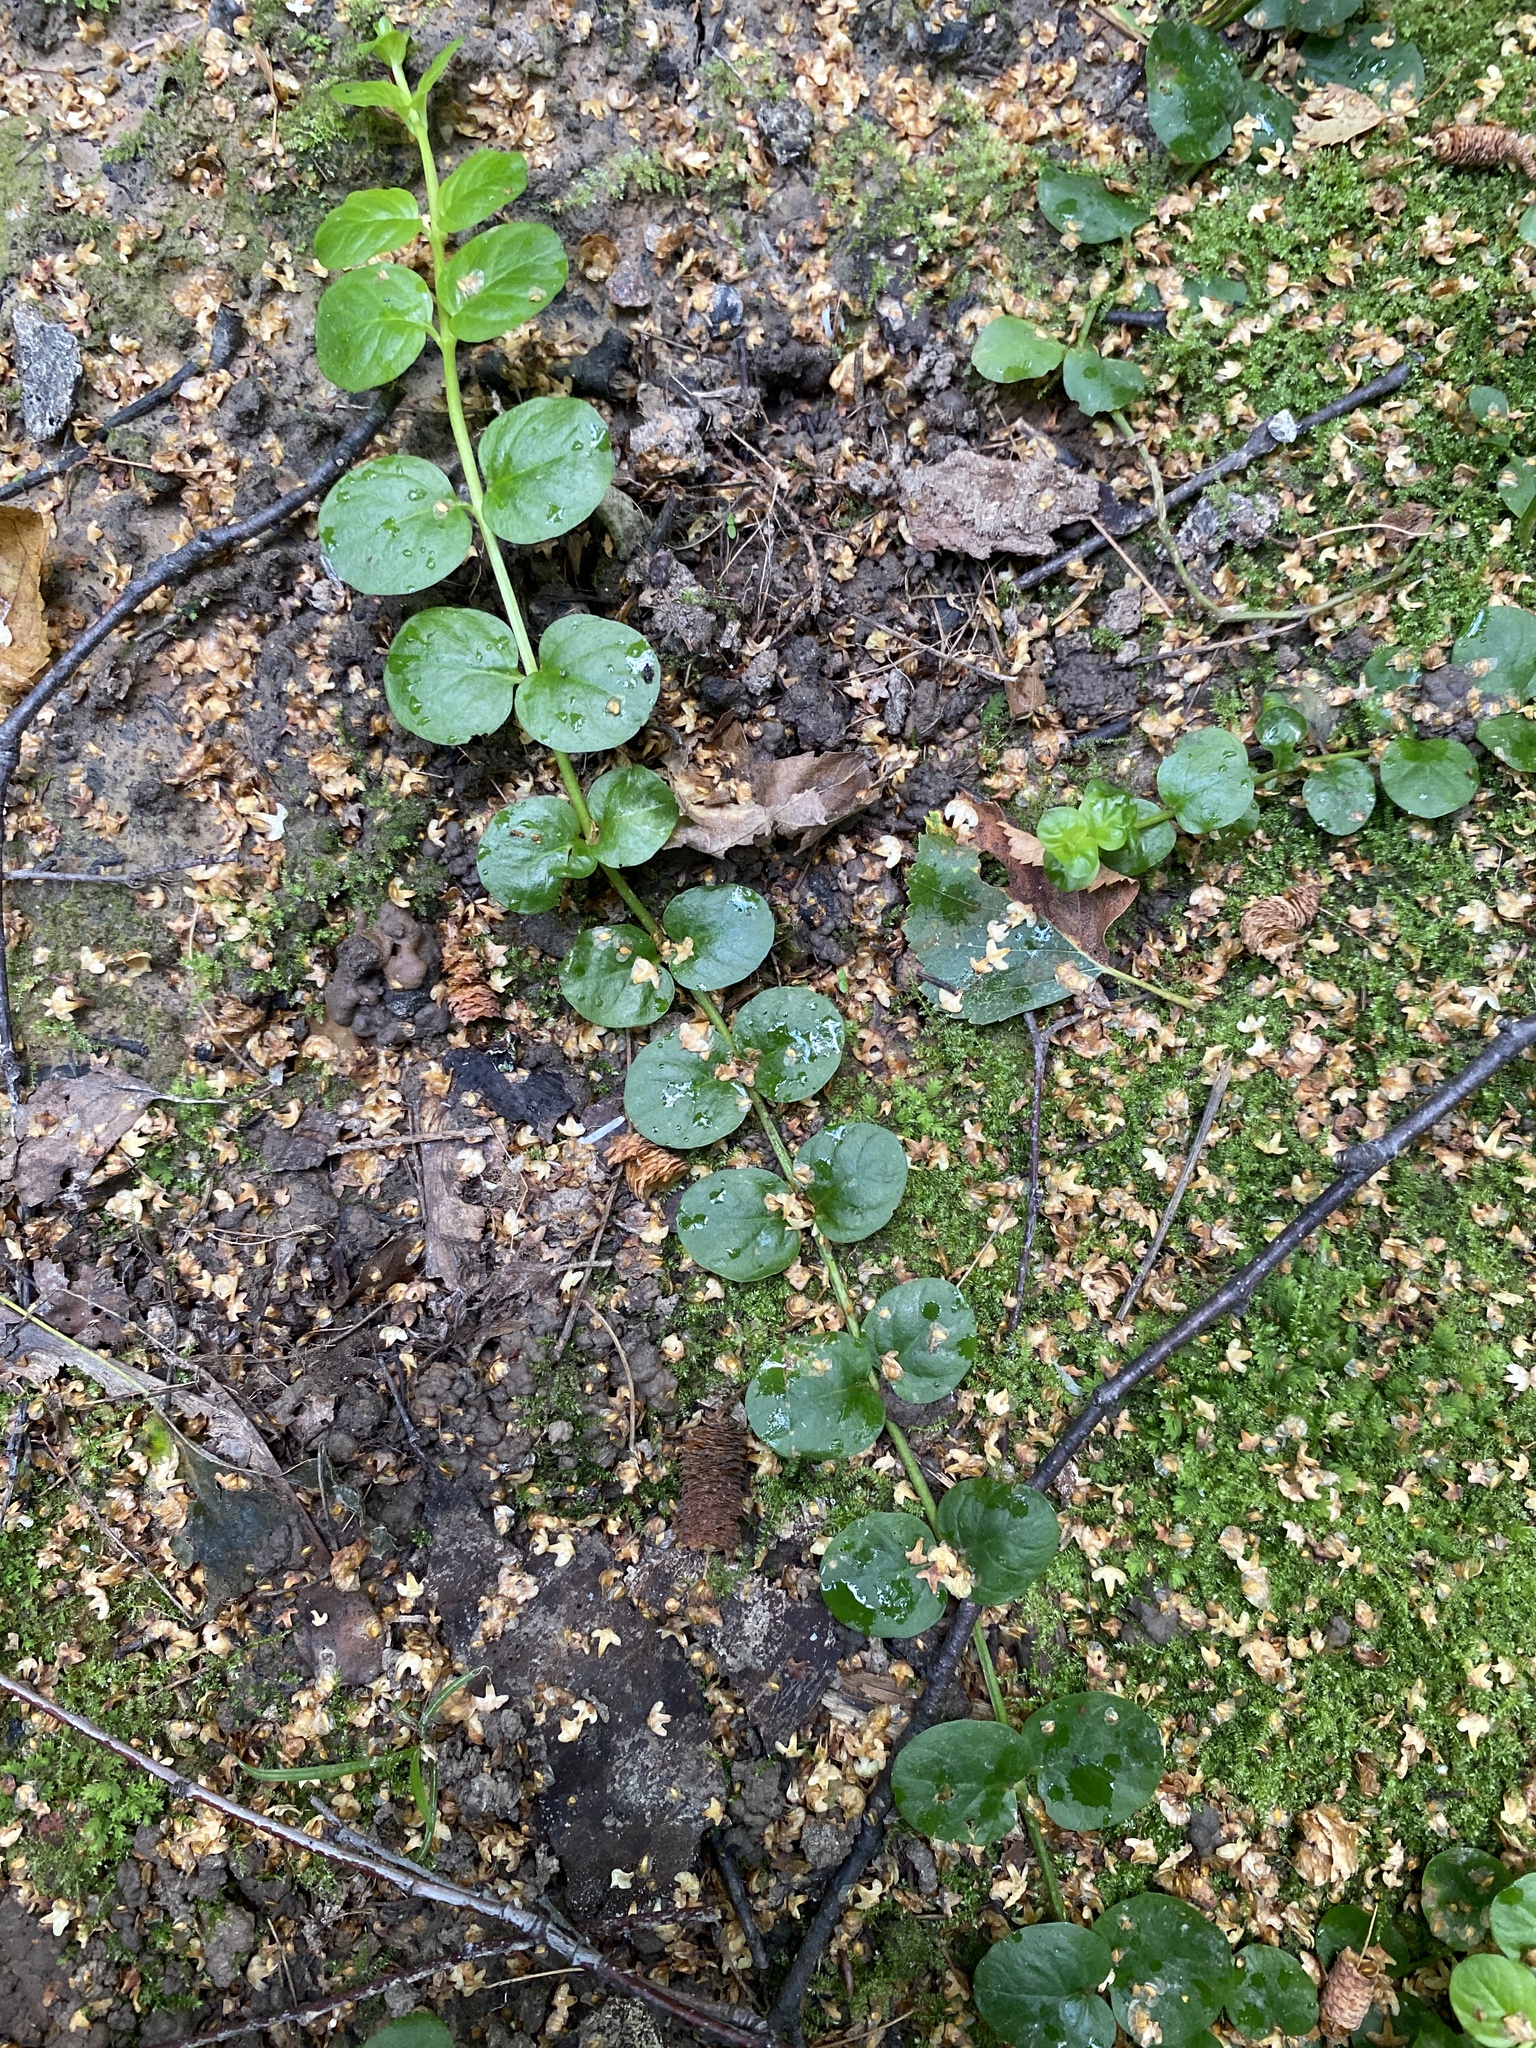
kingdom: Plantae
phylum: Tracheophyta
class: Magnoliopsida
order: Ericales
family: Primulaceae
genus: Lysimachia
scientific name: Lysimachia nummularia
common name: Moneywort
